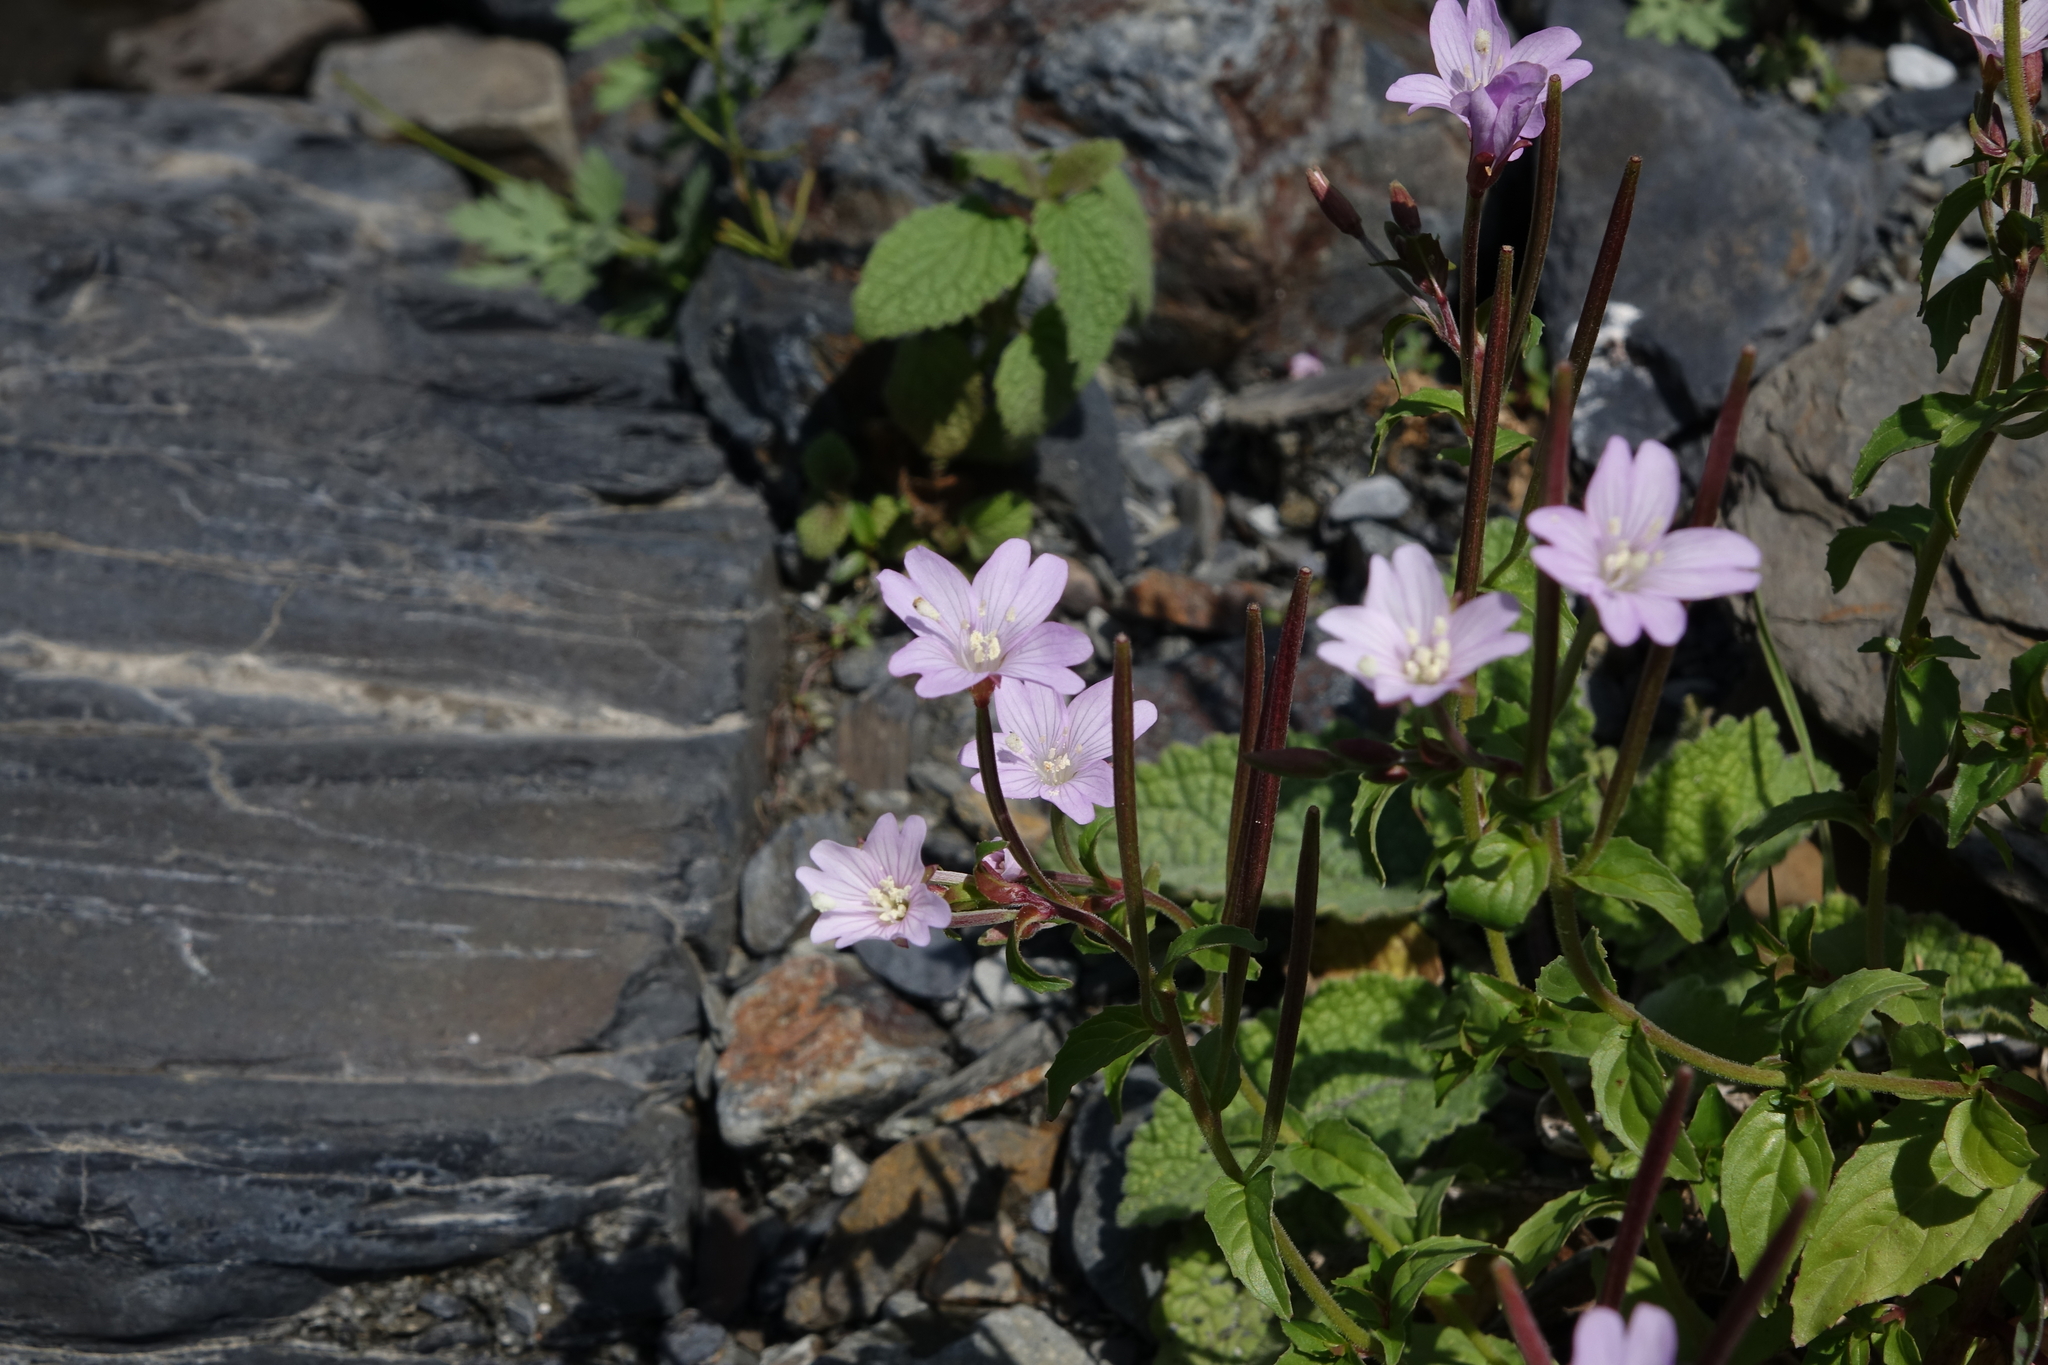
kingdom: Plantae
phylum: Tracheophyta
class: Magnoliopsida
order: Myrtales
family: Onagraceae
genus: Epilobium
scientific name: Epilobium algidum
